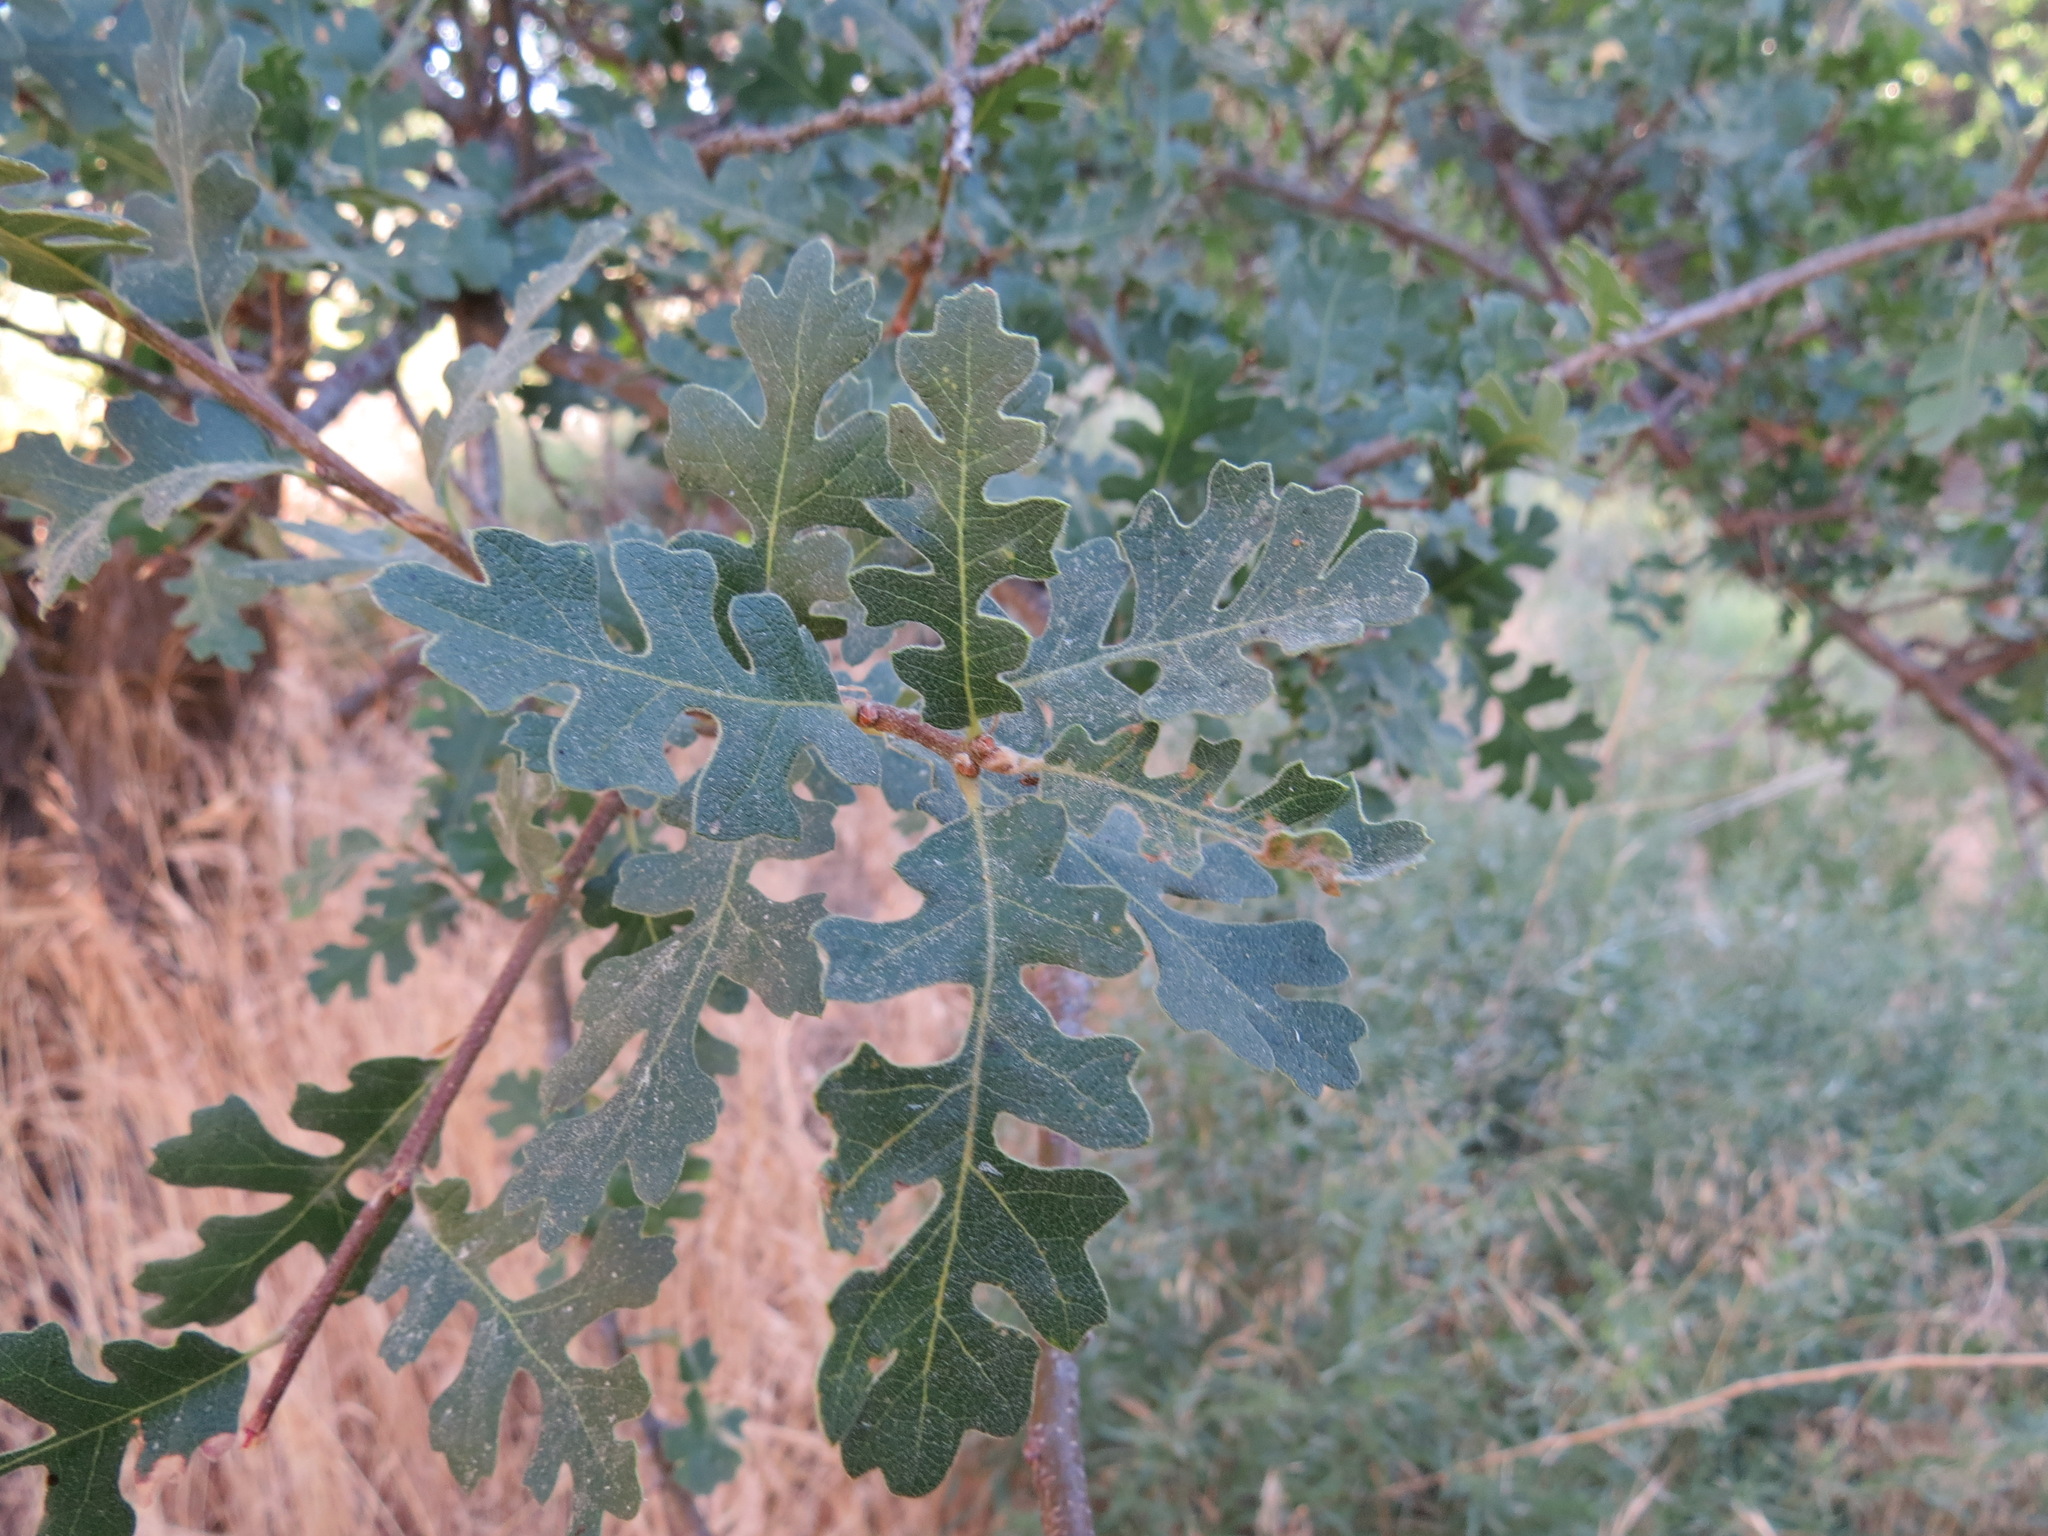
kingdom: Plantae
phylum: Tracheophyta
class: Magnoliopsida
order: Fagales
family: Fagaceae
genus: Quercus
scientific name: Quercus lobata
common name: Valley oak
